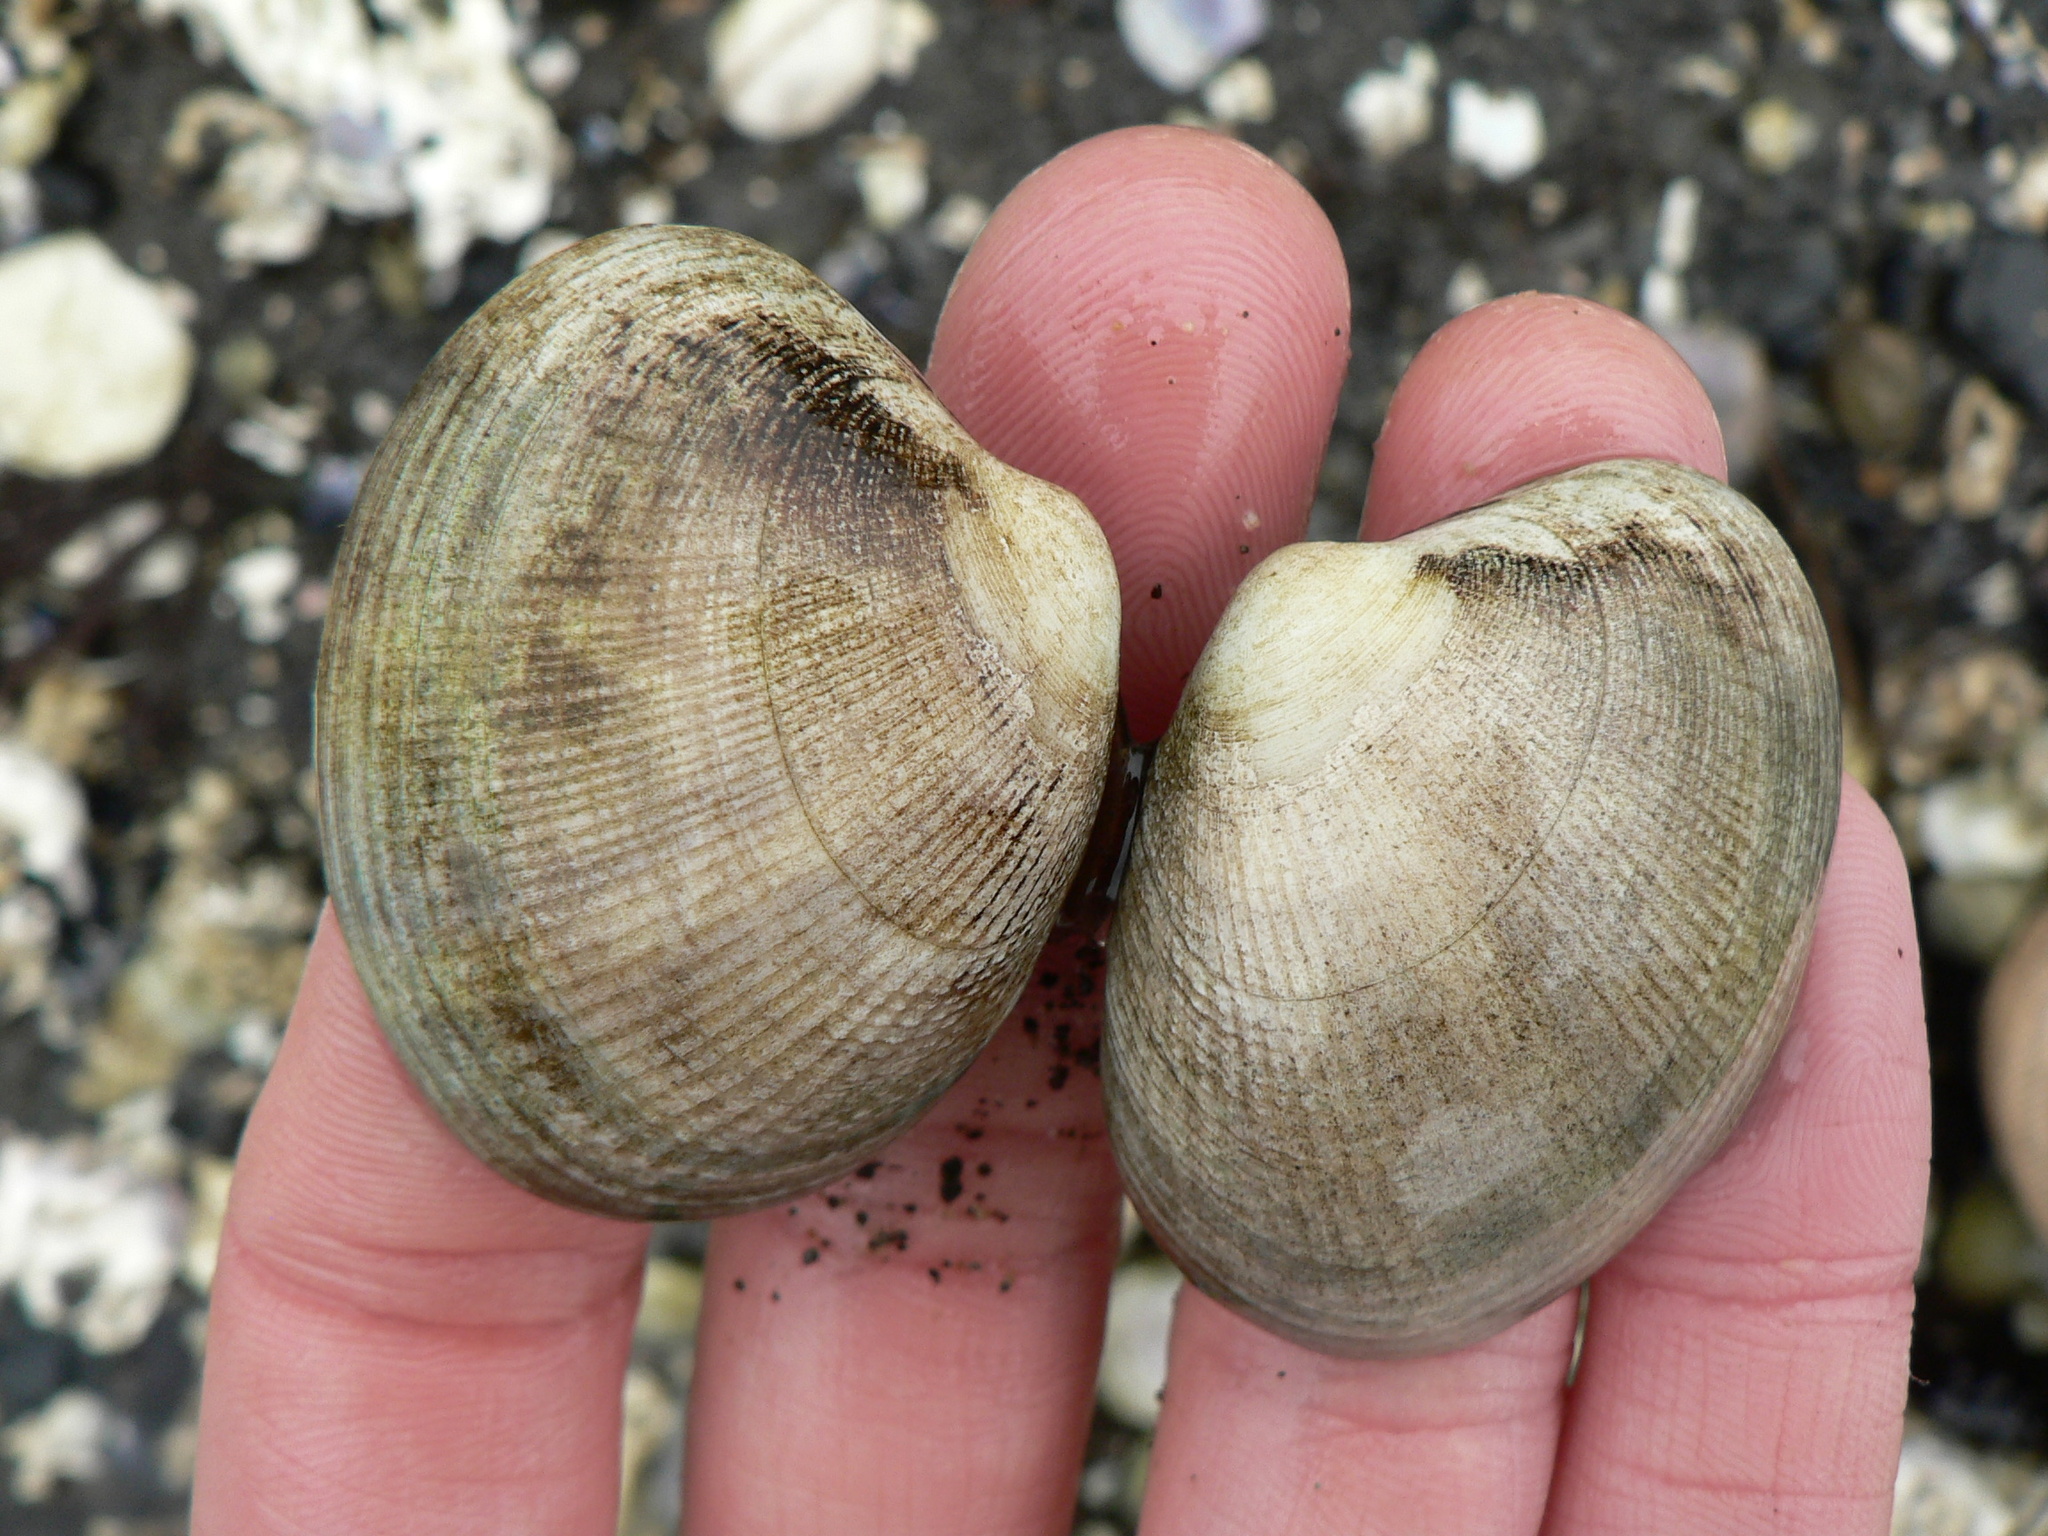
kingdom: Animalia
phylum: Mollusca
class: Bivalvia
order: Venerida
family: Veneridae
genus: Ruditapes
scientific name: Ruditapes philippinarum
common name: Manila clam
